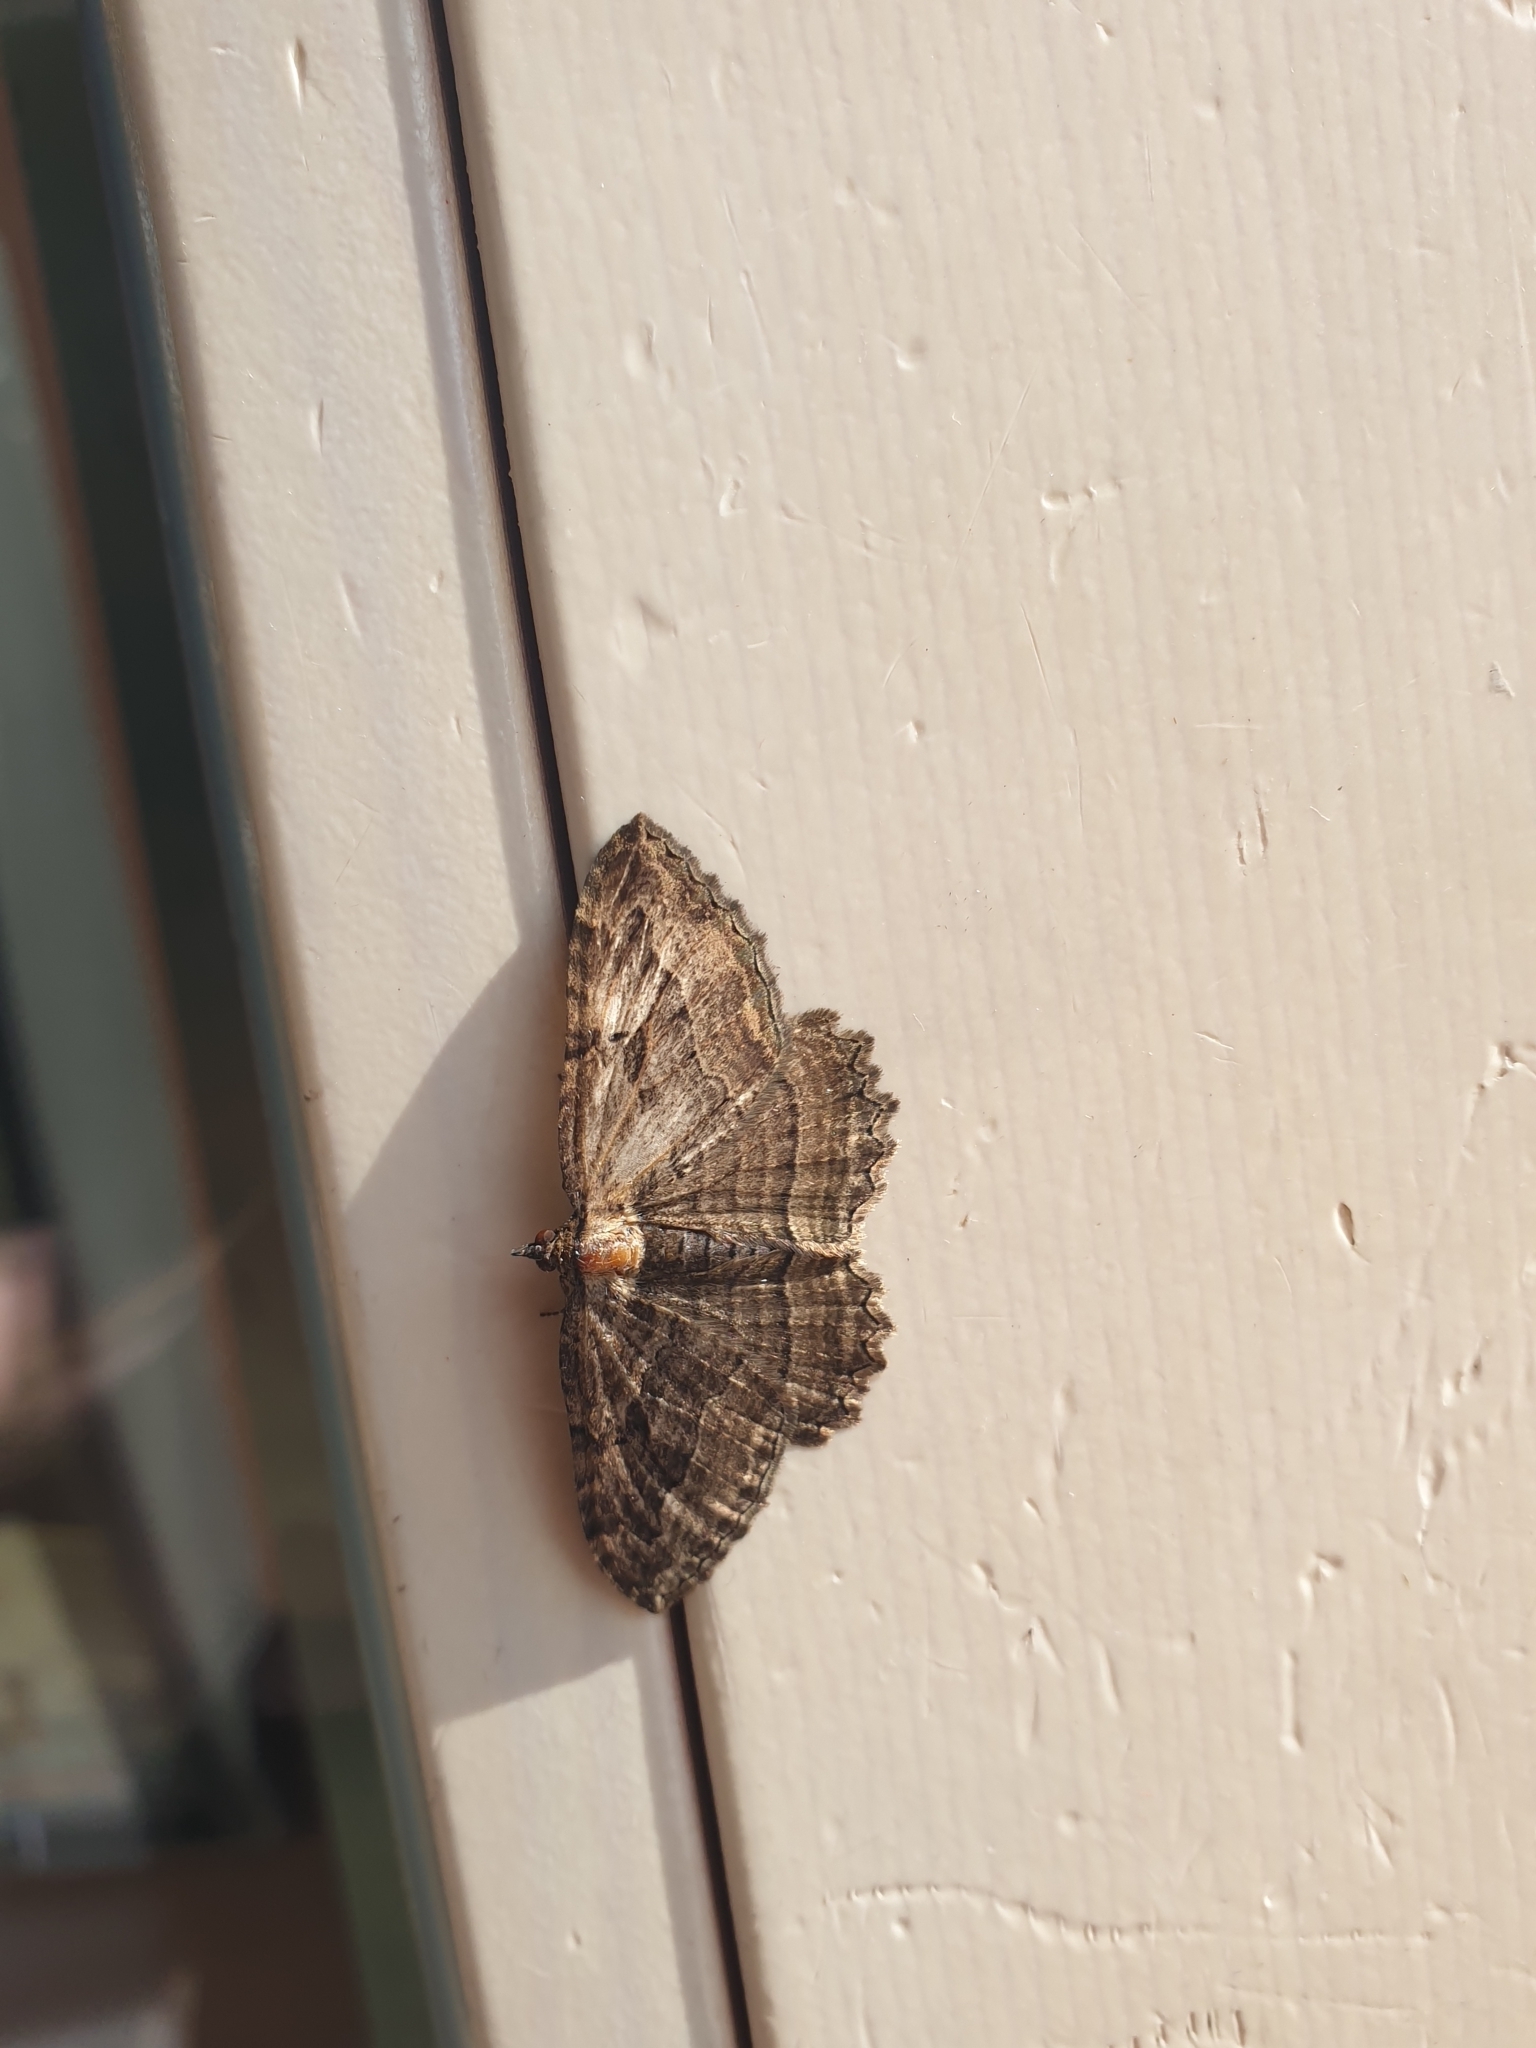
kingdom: Animalia
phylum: Arthropoda
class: Insecta
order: Lepidoptera
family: Geometridae
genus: Philereme
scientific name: Philereme transversata
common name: Dark umber
